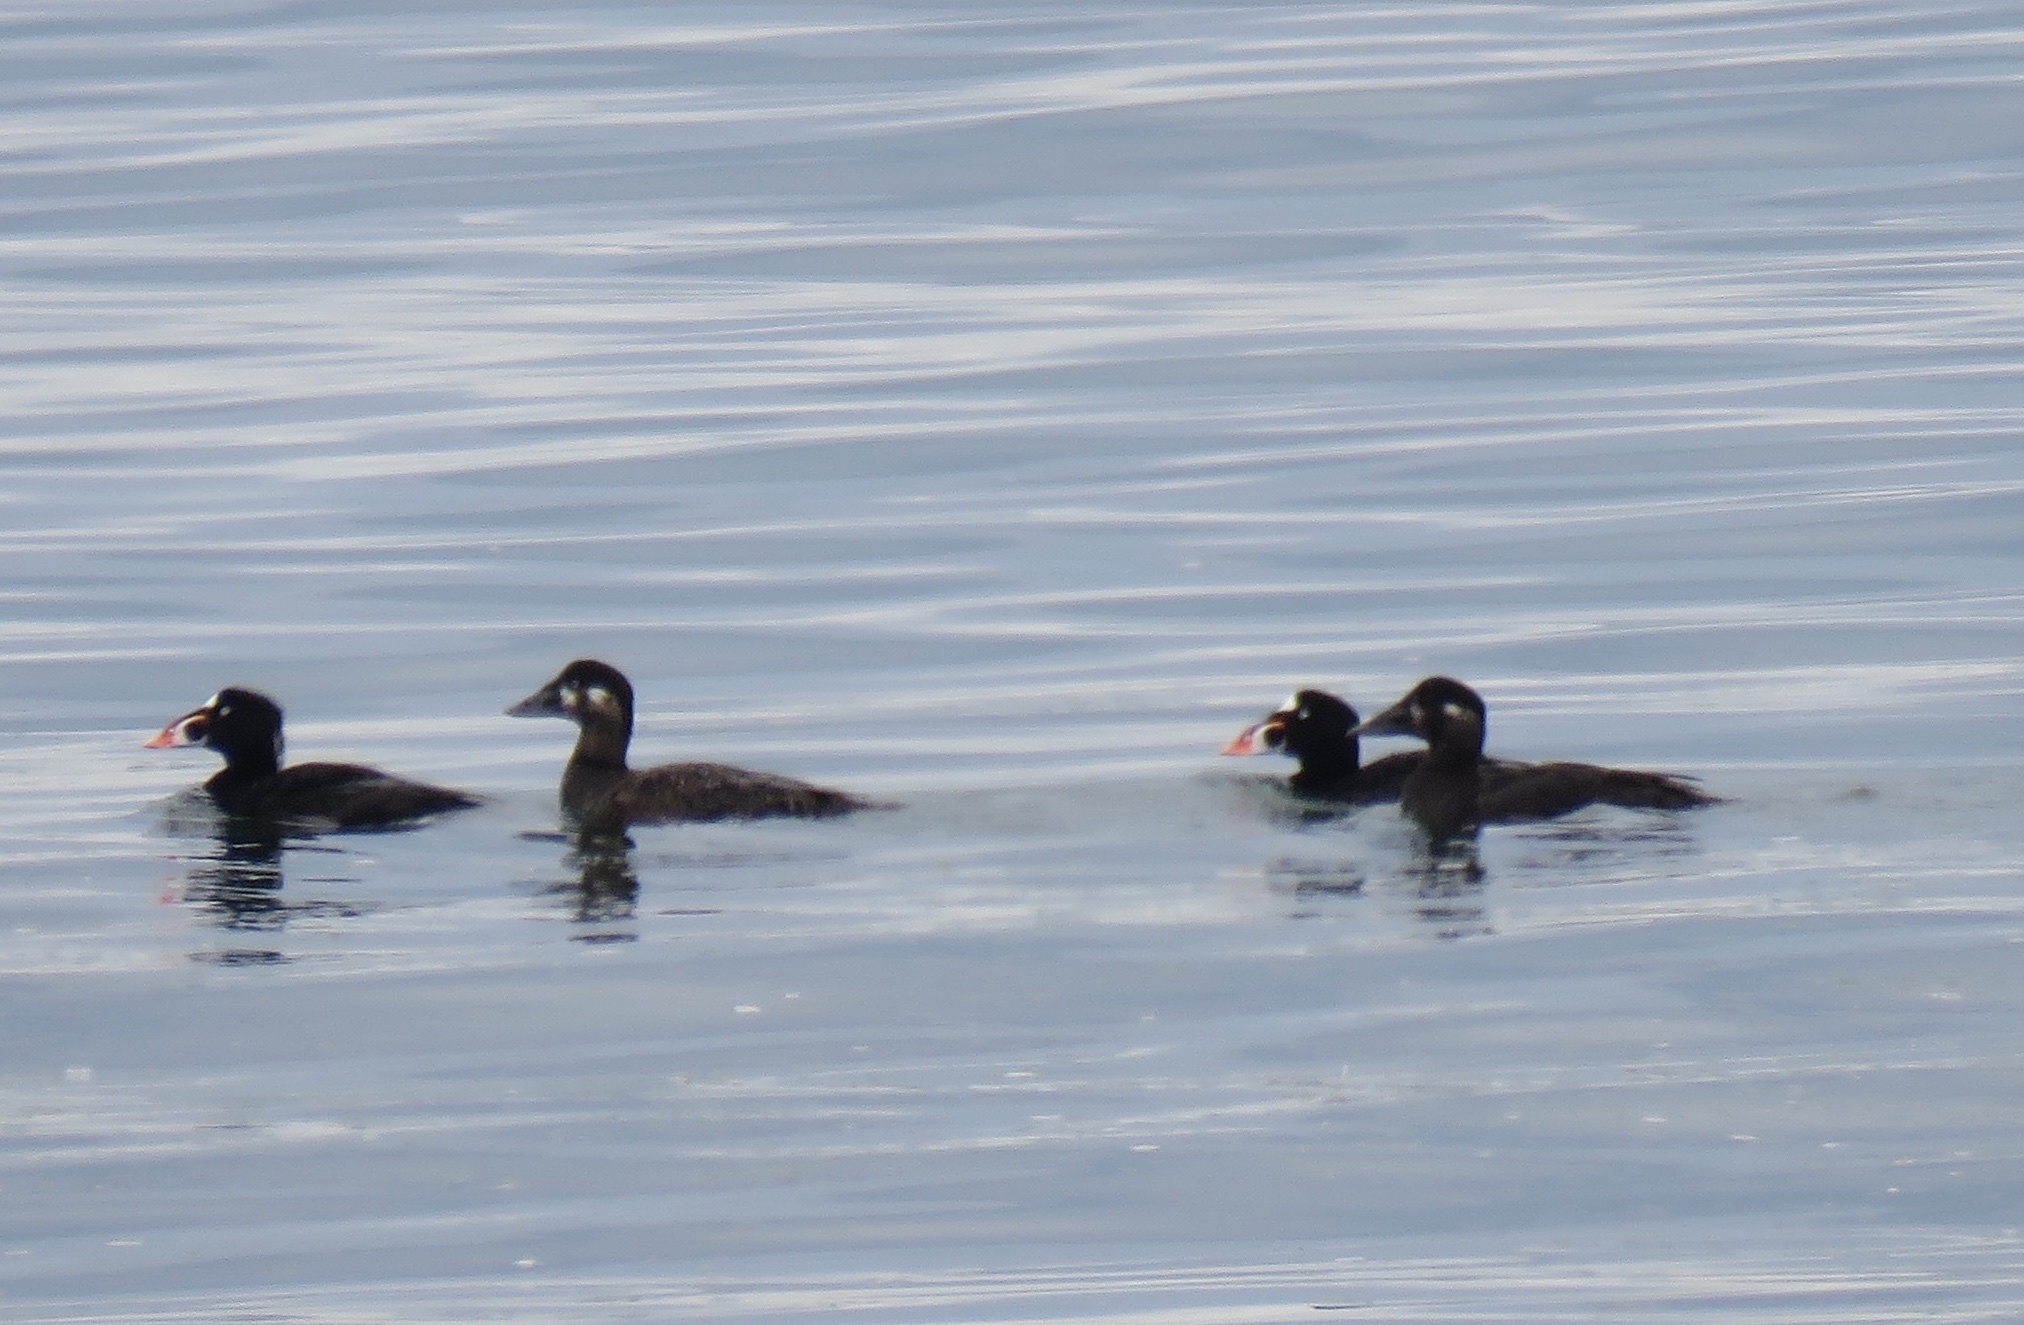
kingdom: Animalia
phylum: Chordata
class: Aves
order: Anseriformes
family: Anatidae
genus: Melanitta
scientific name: Melanitta perspicillata
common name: Surf scoter
